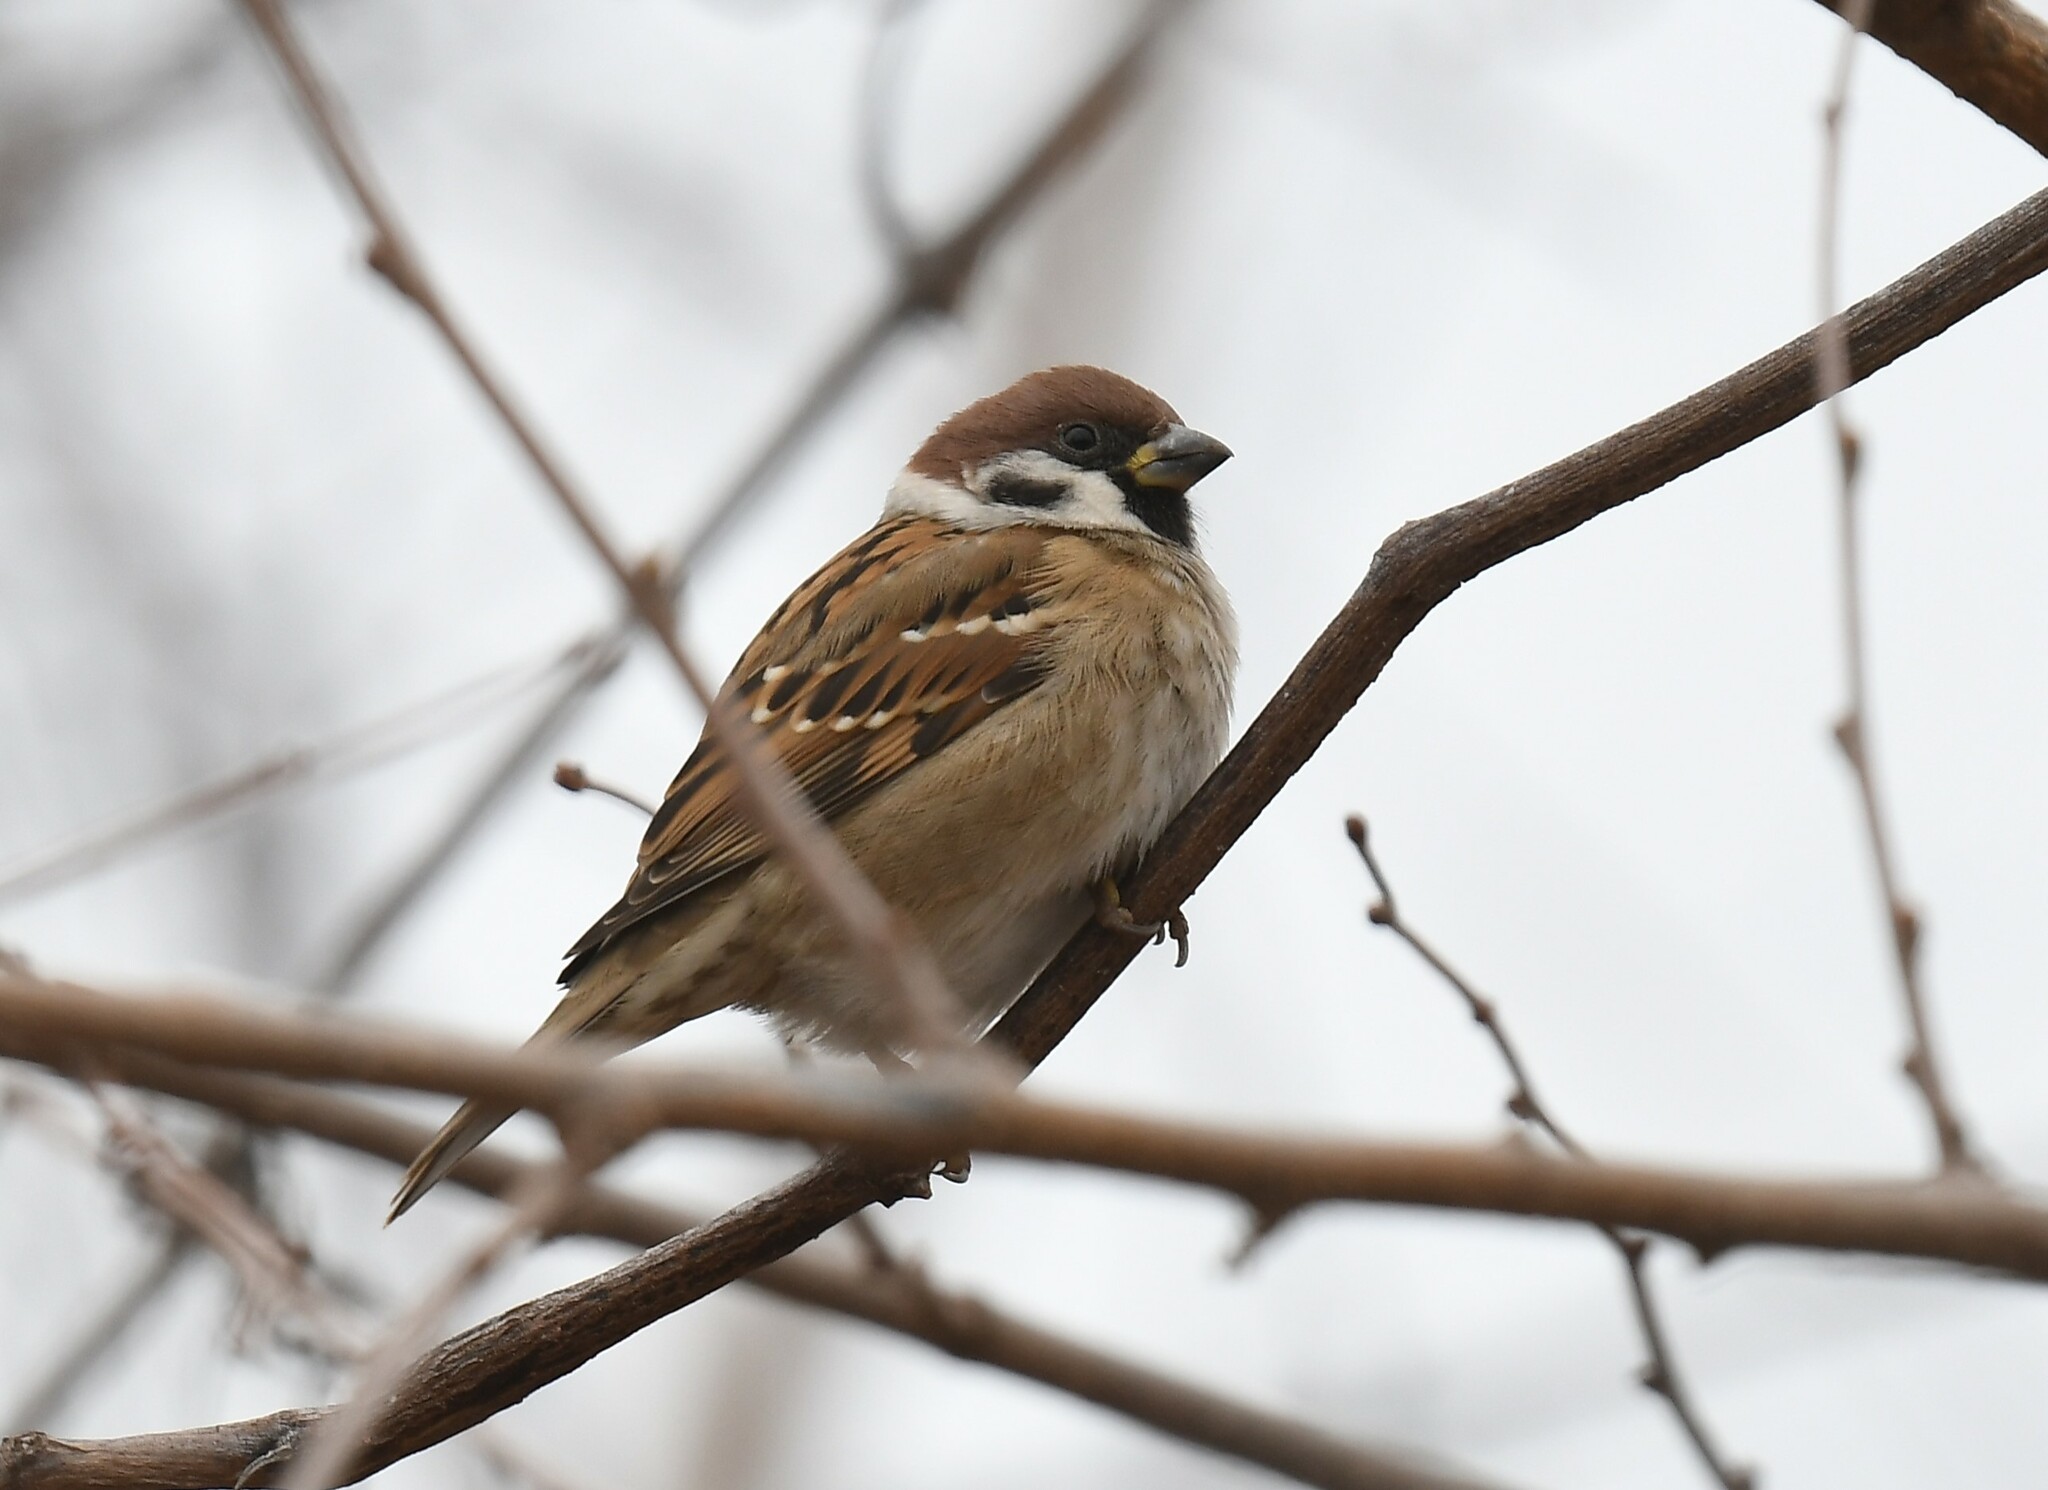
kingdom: Animalia
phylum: Chordata
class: Aves
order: Passeriformes
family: Passeridae
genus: Passer
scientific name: Passer montanus
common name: Eurasian tree sparrow
